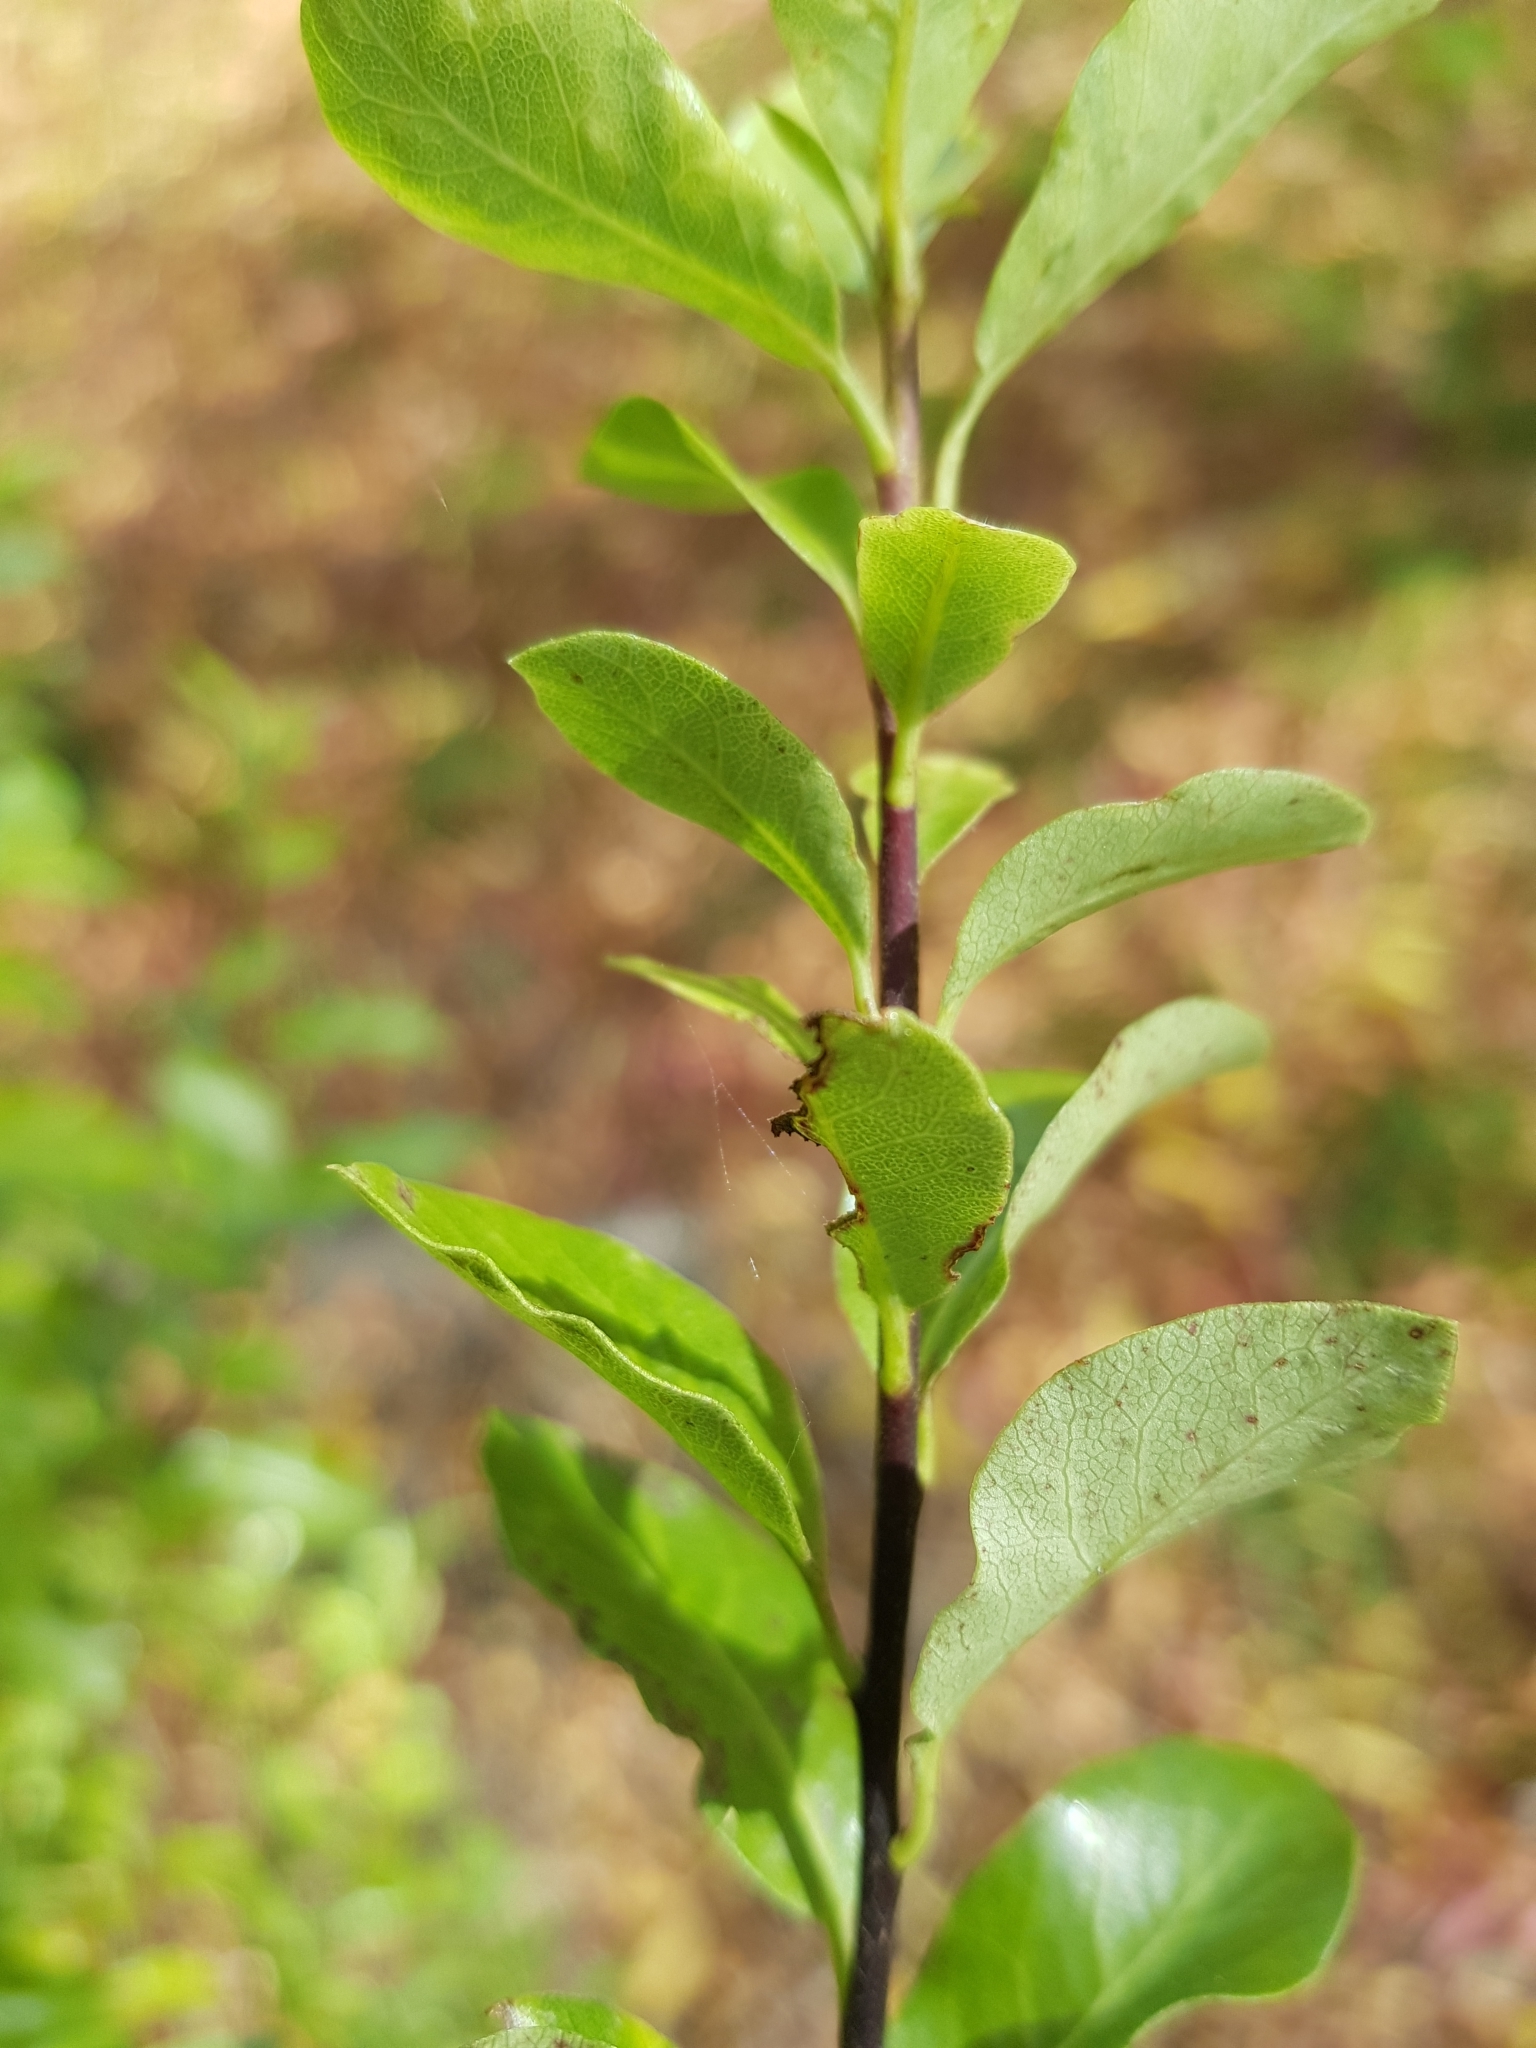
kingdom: Plantae
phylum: Tracheophyta
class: Magnoliopsida
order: Apiales
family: Pittosporaceae
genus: Pittosporum
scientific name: Pittosporum tenuifolium
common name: Kohuhu
